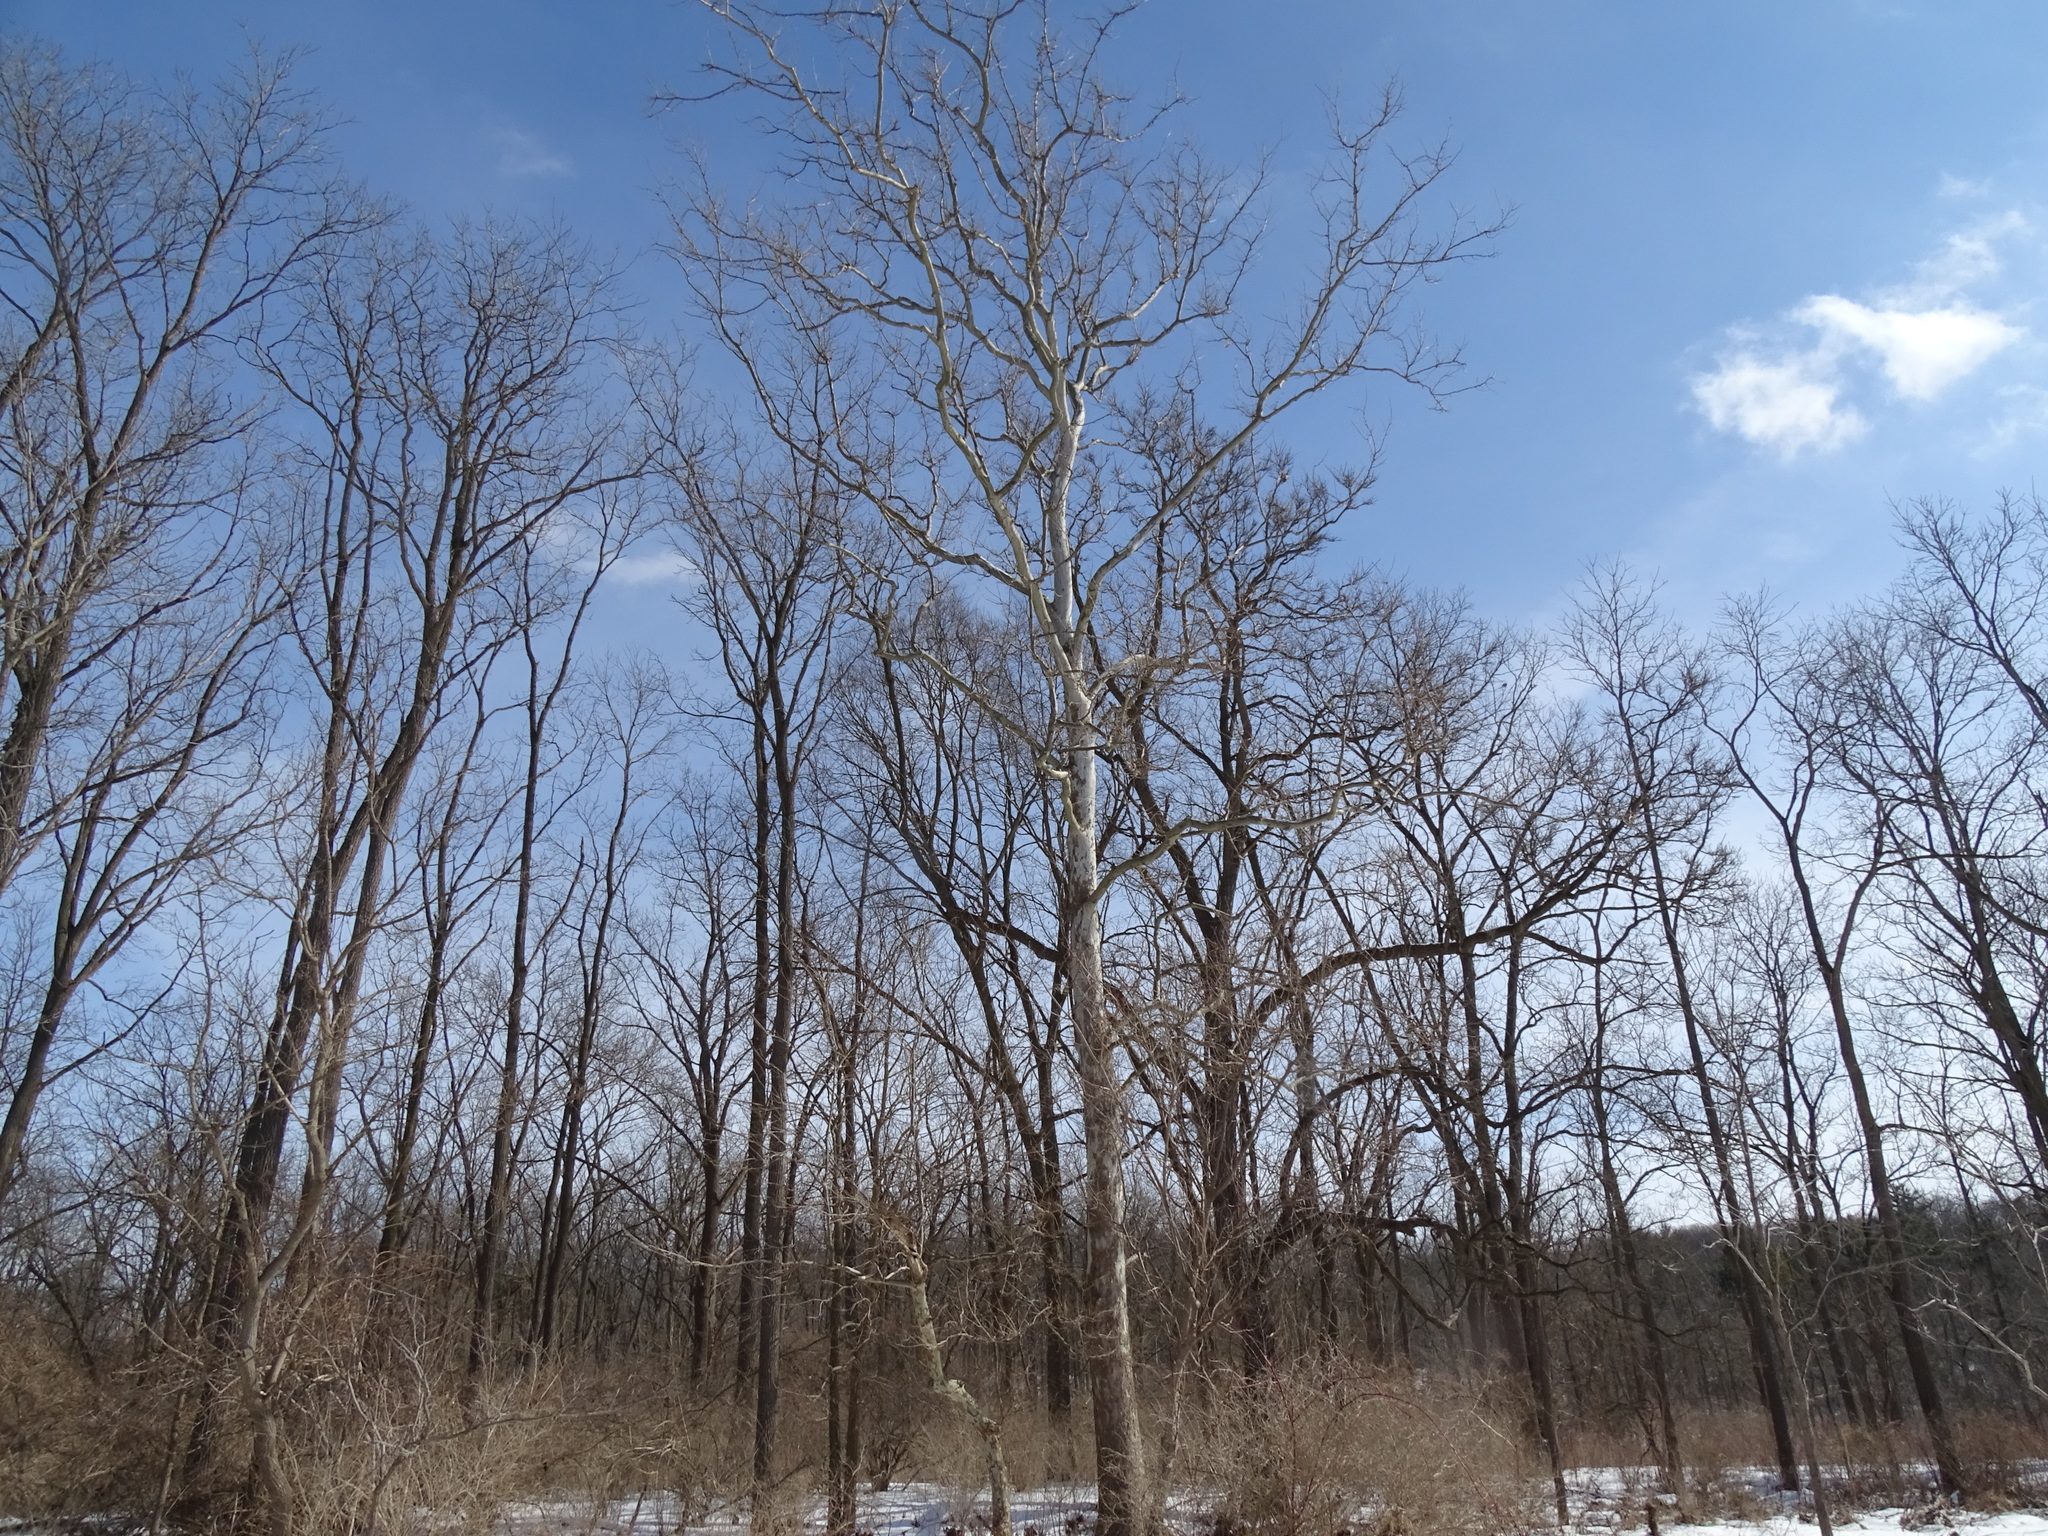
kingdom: Plantae
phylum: Tracheophyta
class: Magnoliopsida
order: Proteales
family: Platanaceae
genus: Platanus
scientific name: Platanus occidentalis
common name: American sycamore
